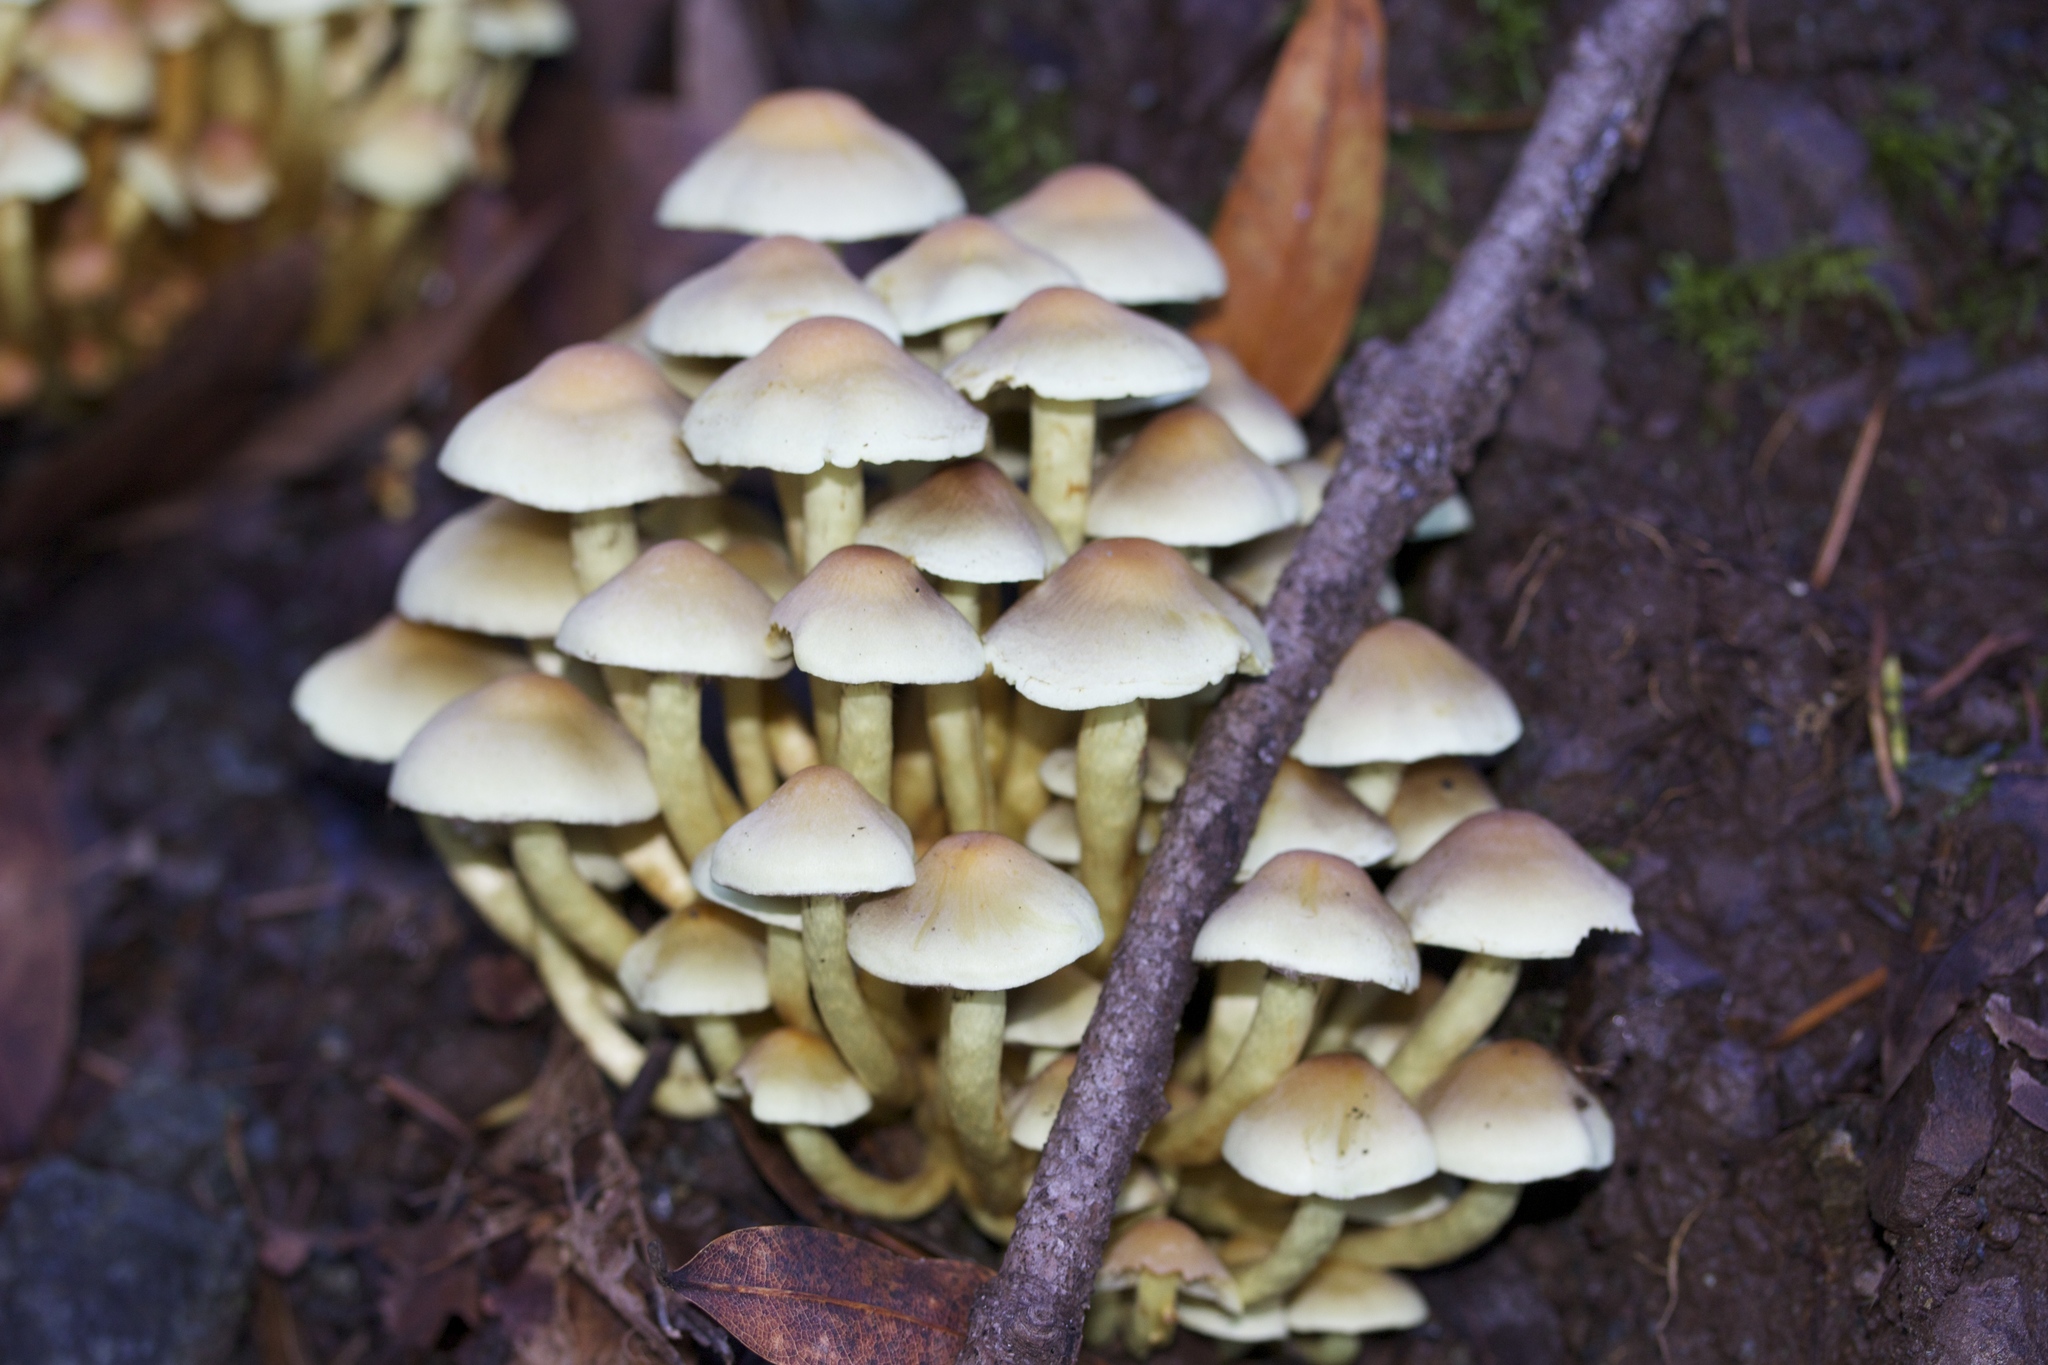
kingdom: Fungi
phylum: Basidiomycota
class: Agaricomycetes
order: Agaricales
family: Strophariaceae
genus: Hypholoma
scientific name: Hypholoma fasciculare
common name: Sulphur tuft
